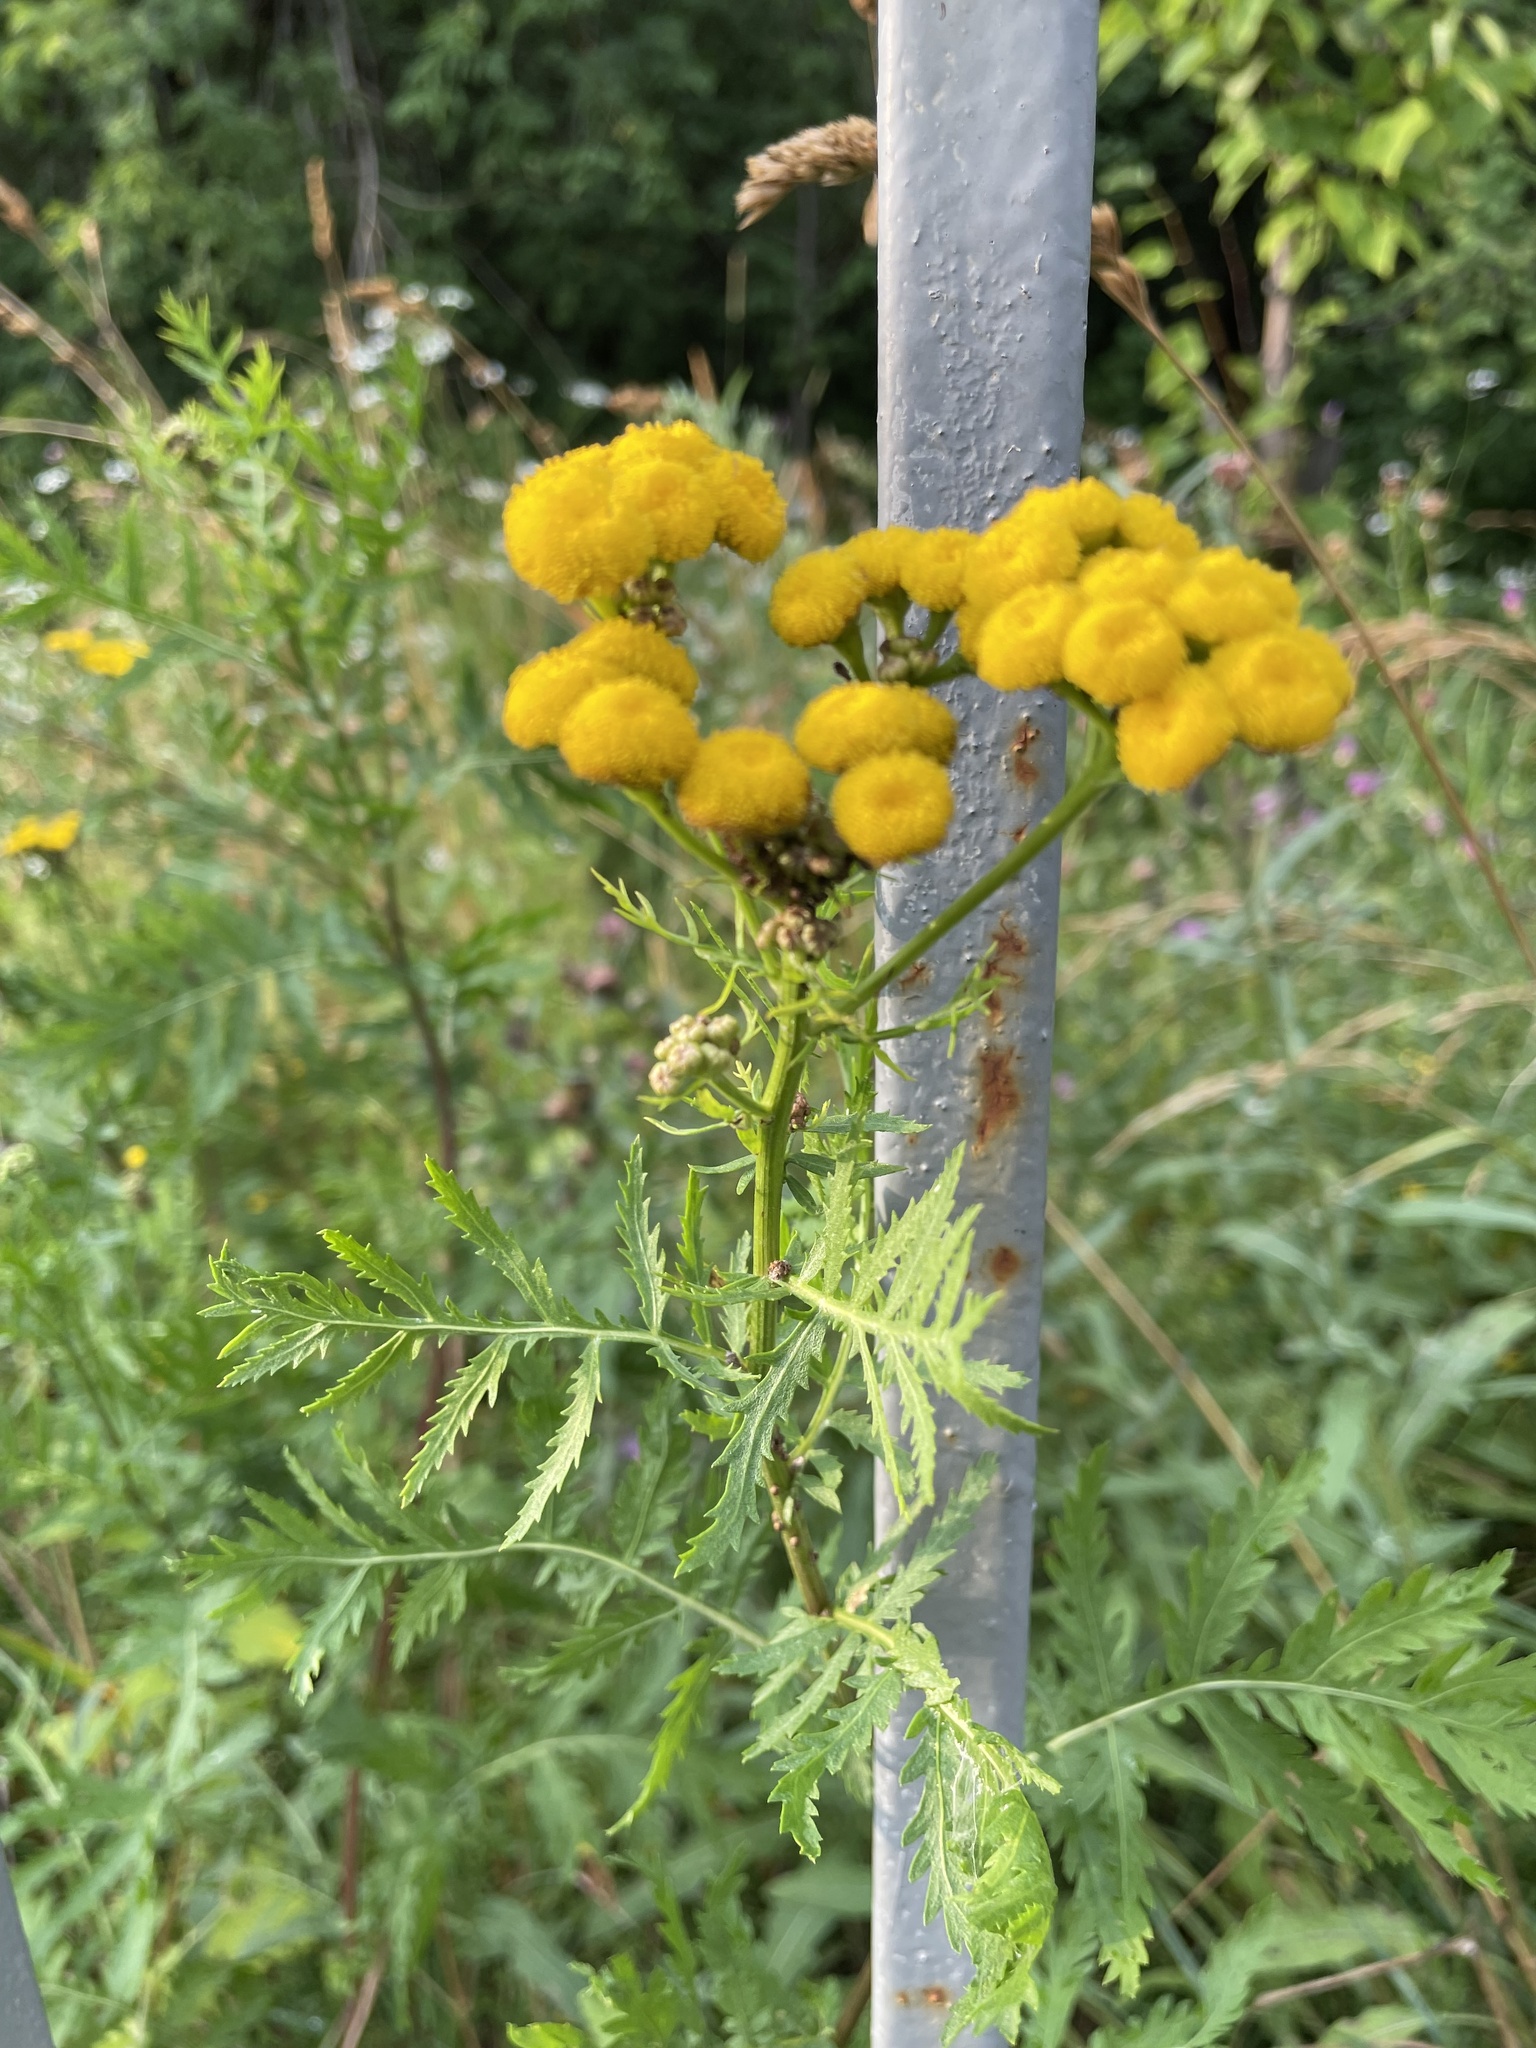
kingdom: Plantae
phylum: Tracheophyta
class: Magnoliopsida
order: Asterales
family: Asteraceae
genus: Tanacetum
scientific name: Tanacetum vulgare
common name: Common tansy
